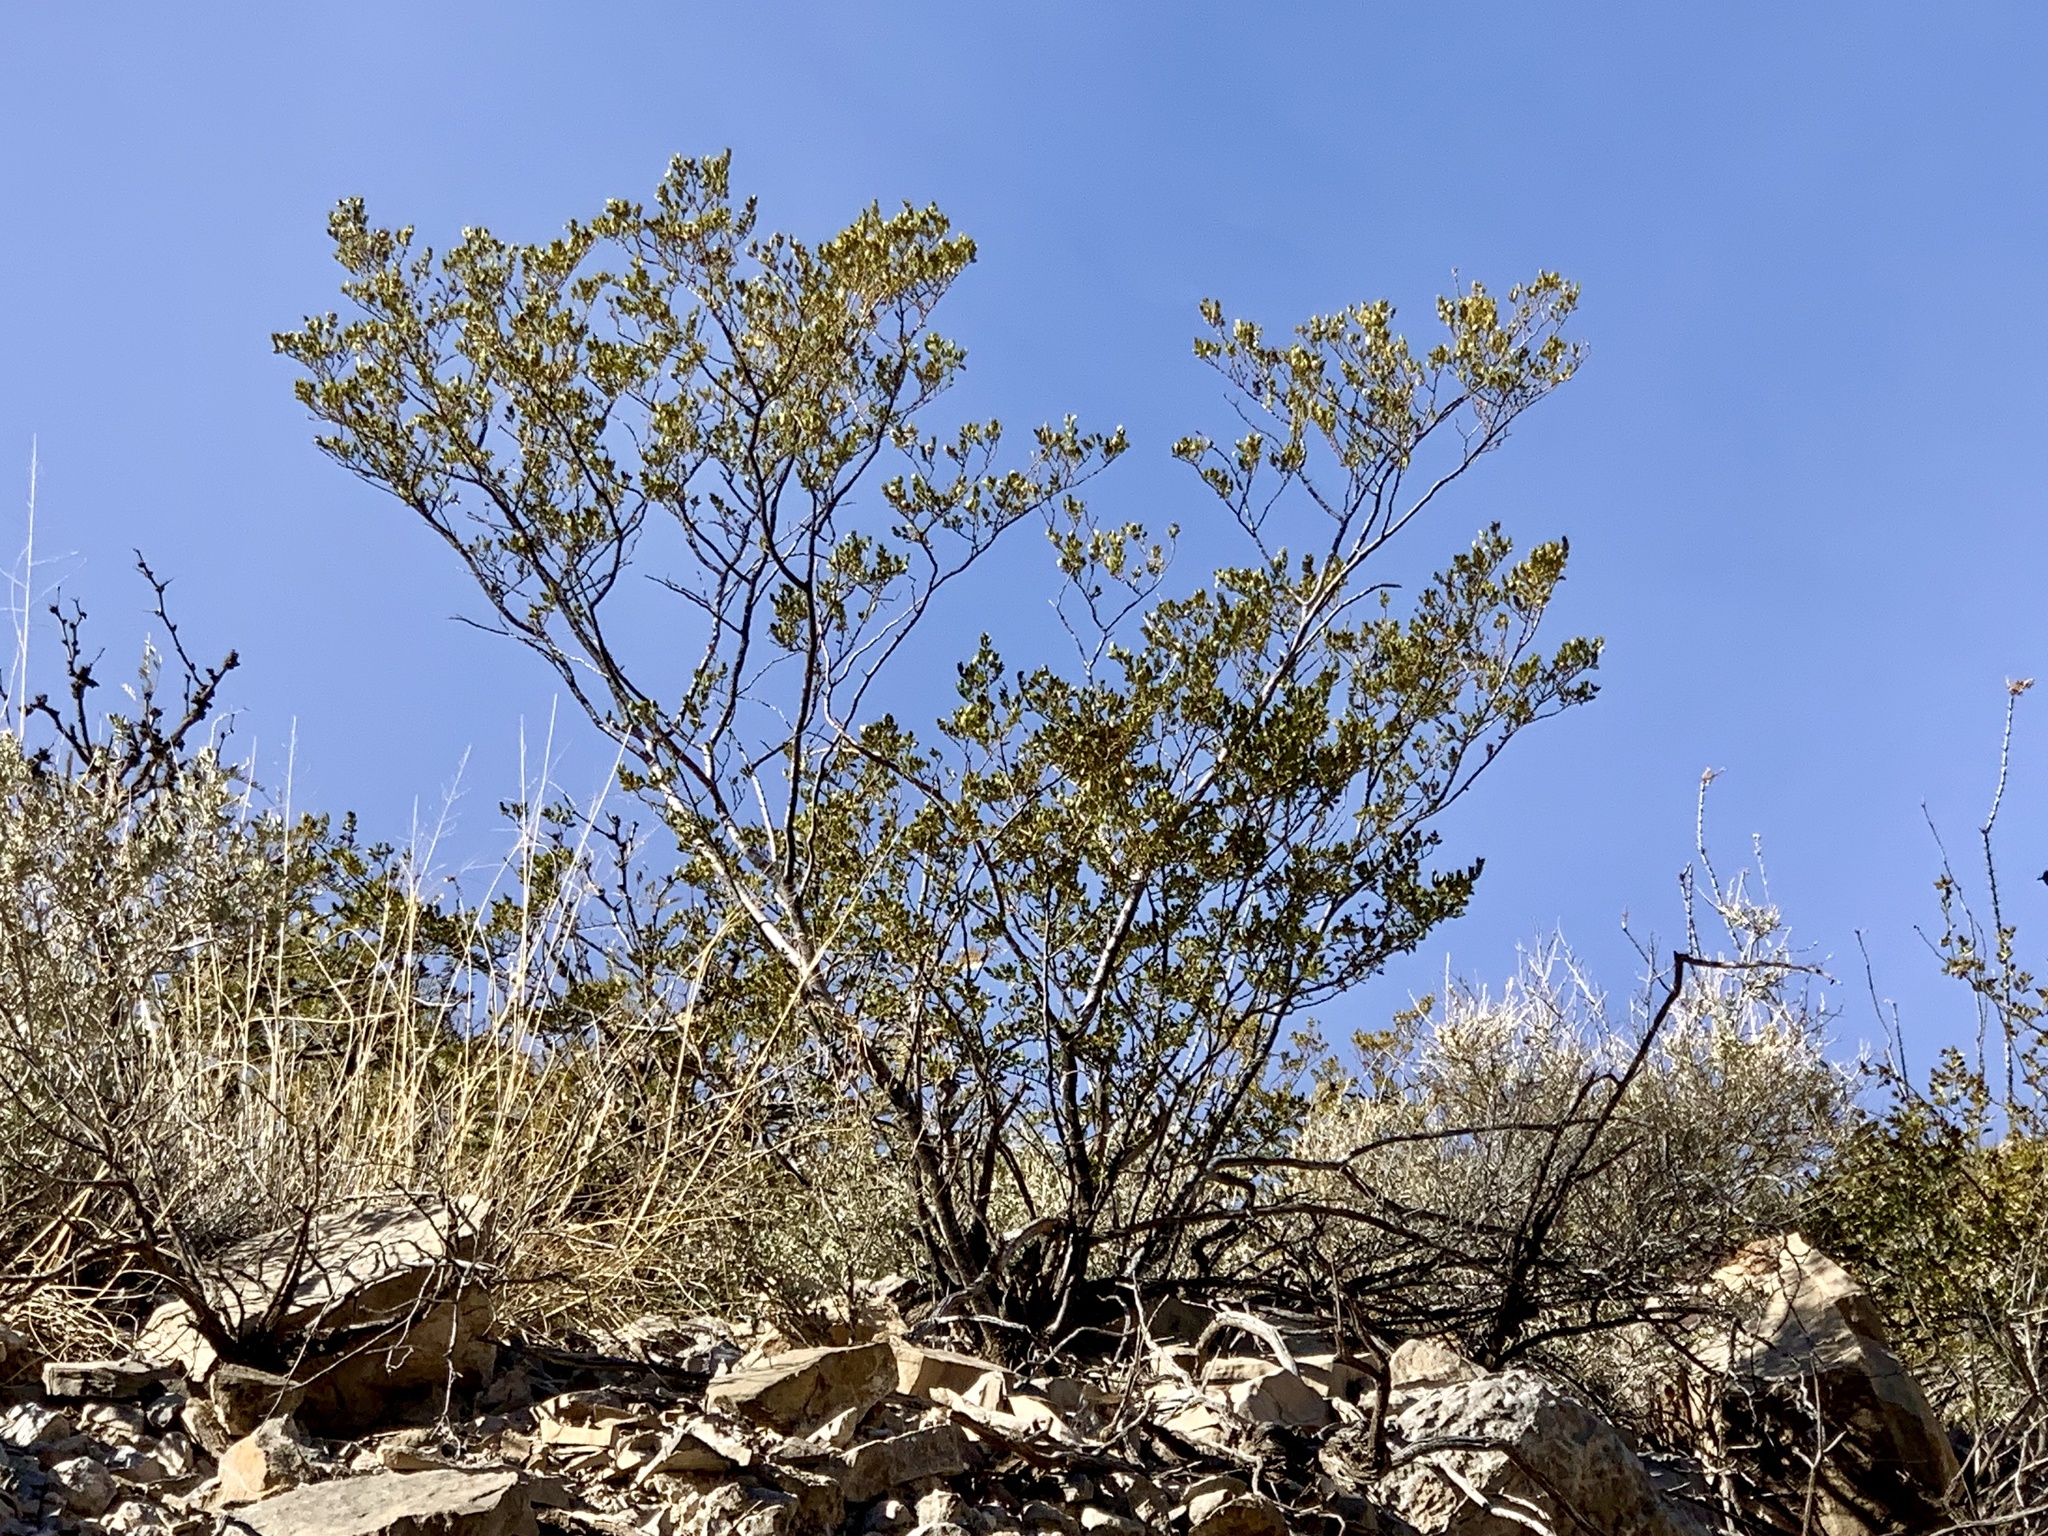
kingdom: Plantae
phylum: Tracheophyta
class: Magnoliopsida
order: Zygophyllales
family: Zygophyllaceae
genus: Larrea
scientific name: Larrea tridentata
